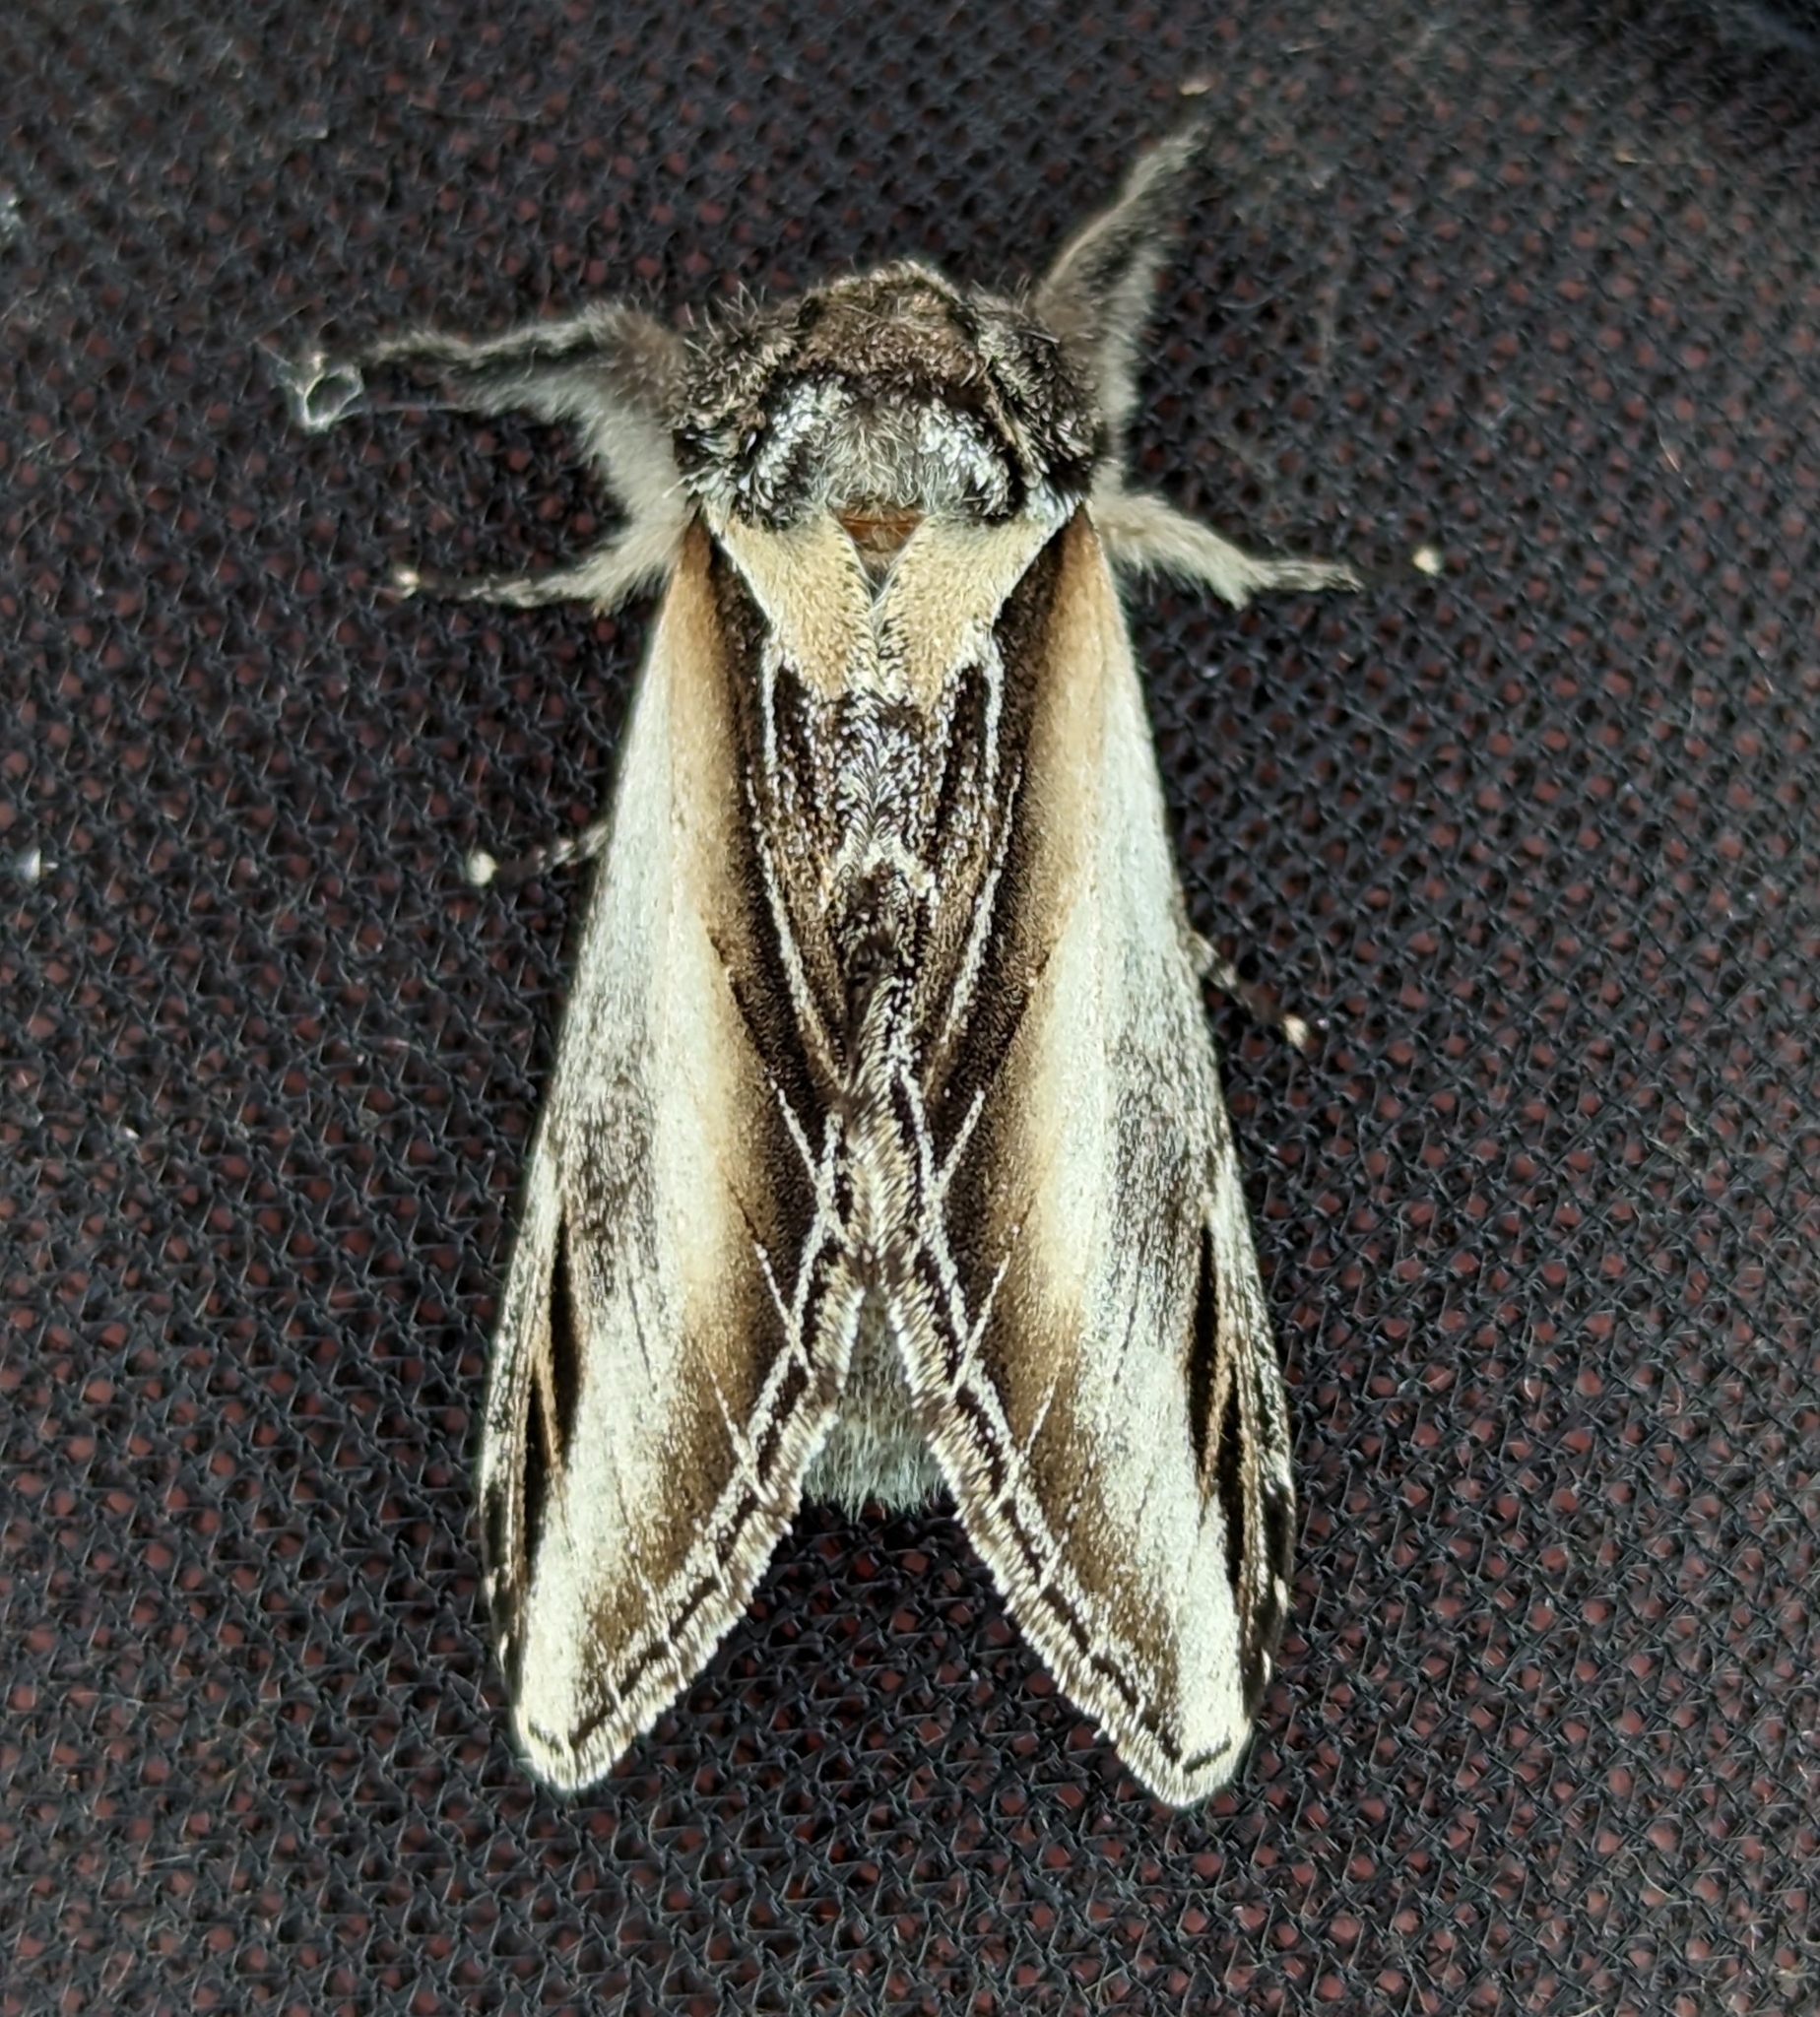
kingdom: Animalia
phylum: Arthropoda
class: Insecta
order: Lepidoptera
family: Notodontidae
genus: Pheosia
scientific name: Pheosia rimosa
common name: Black-rimmed prominent
